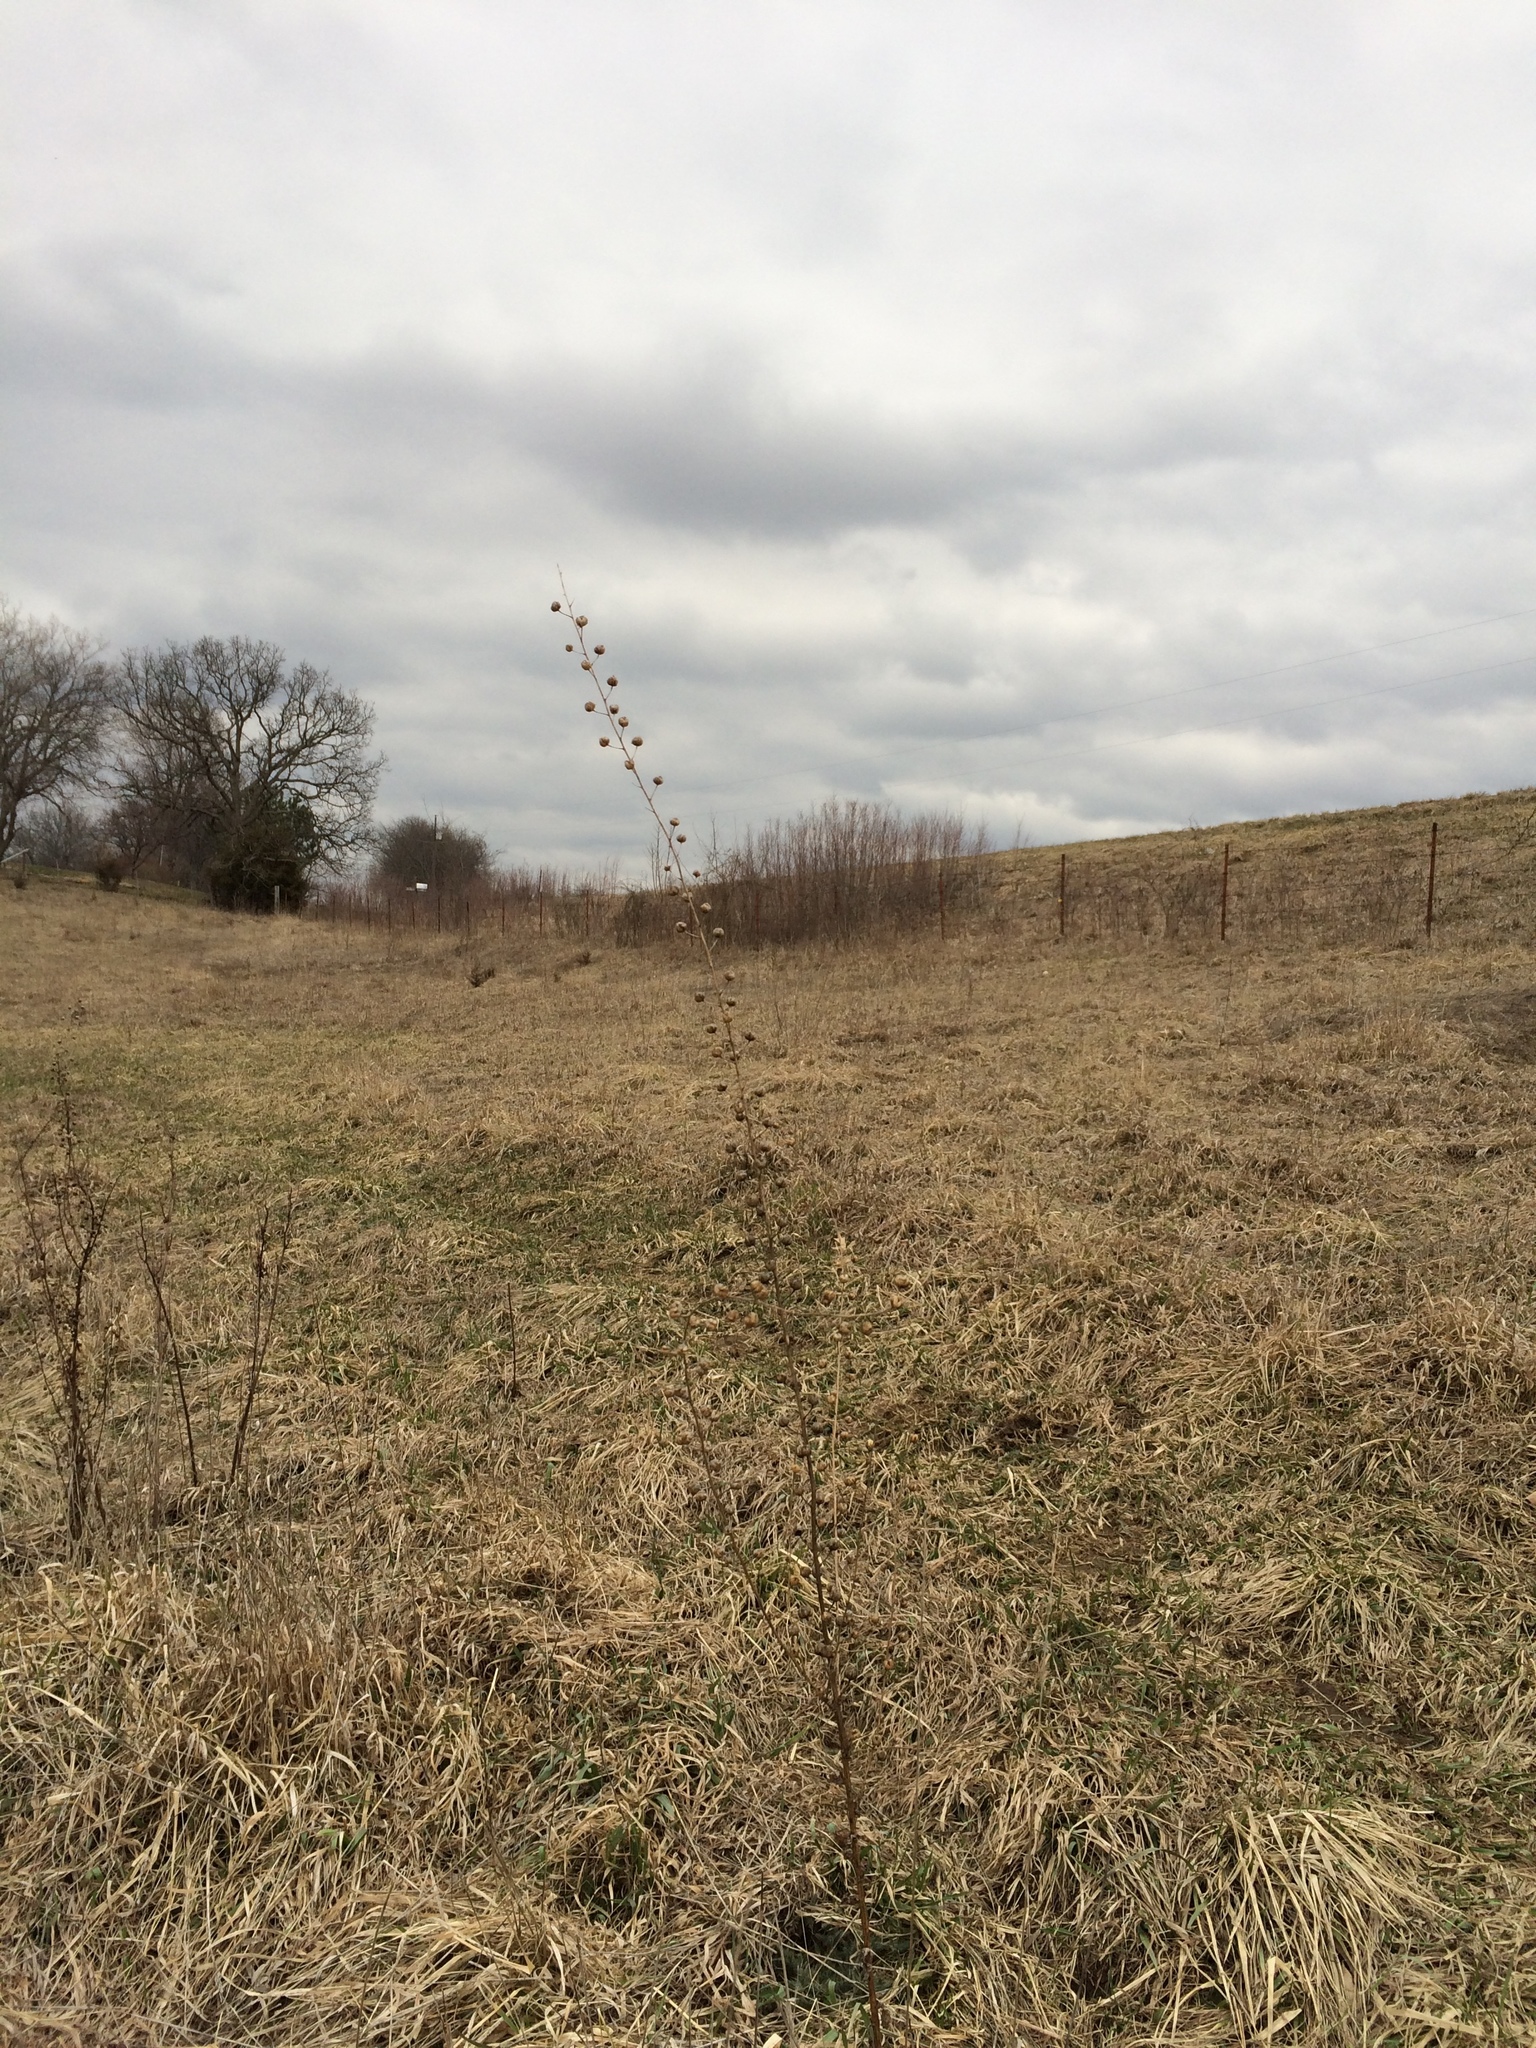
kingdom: Plantae
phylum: Tracheophyta
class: Magnoliopsida
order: Lamiales
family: Scrophulariaceae
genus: Verbascum
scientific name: Verbascum blattaria
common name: Moth mullein
